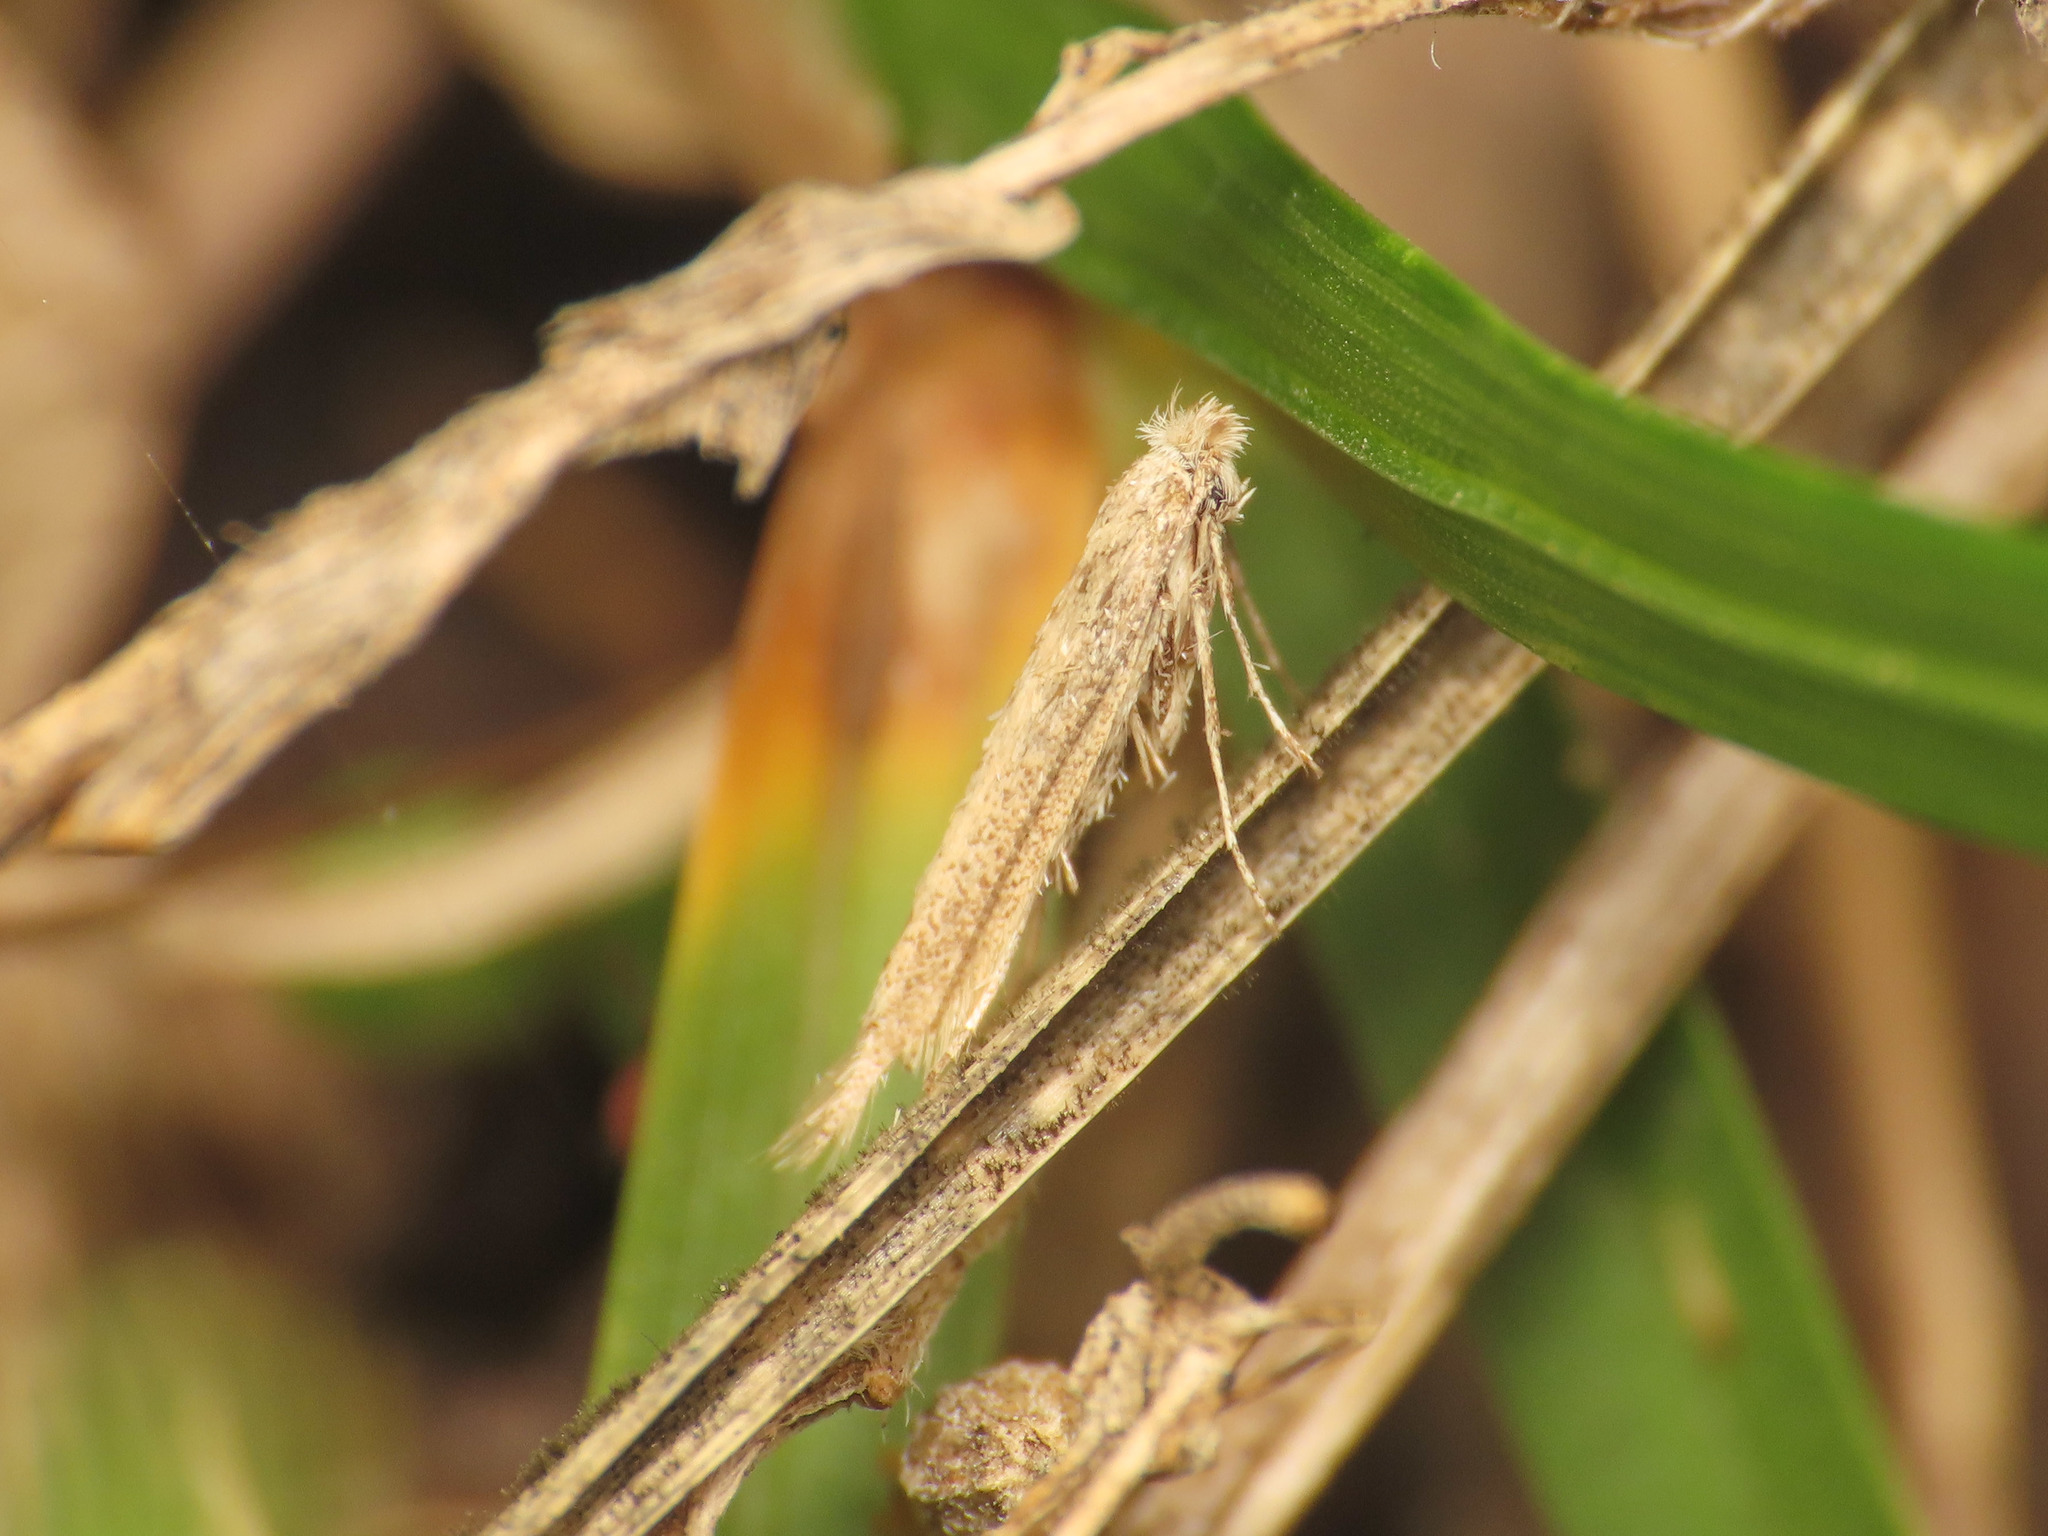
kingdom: Animalia
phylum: Arthropoda
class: Insecta
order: Lepidoptera
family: Bedelliidae
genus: Bedellia
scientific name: Bedellia somnulentella
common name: Morning-glory leafminer moth
